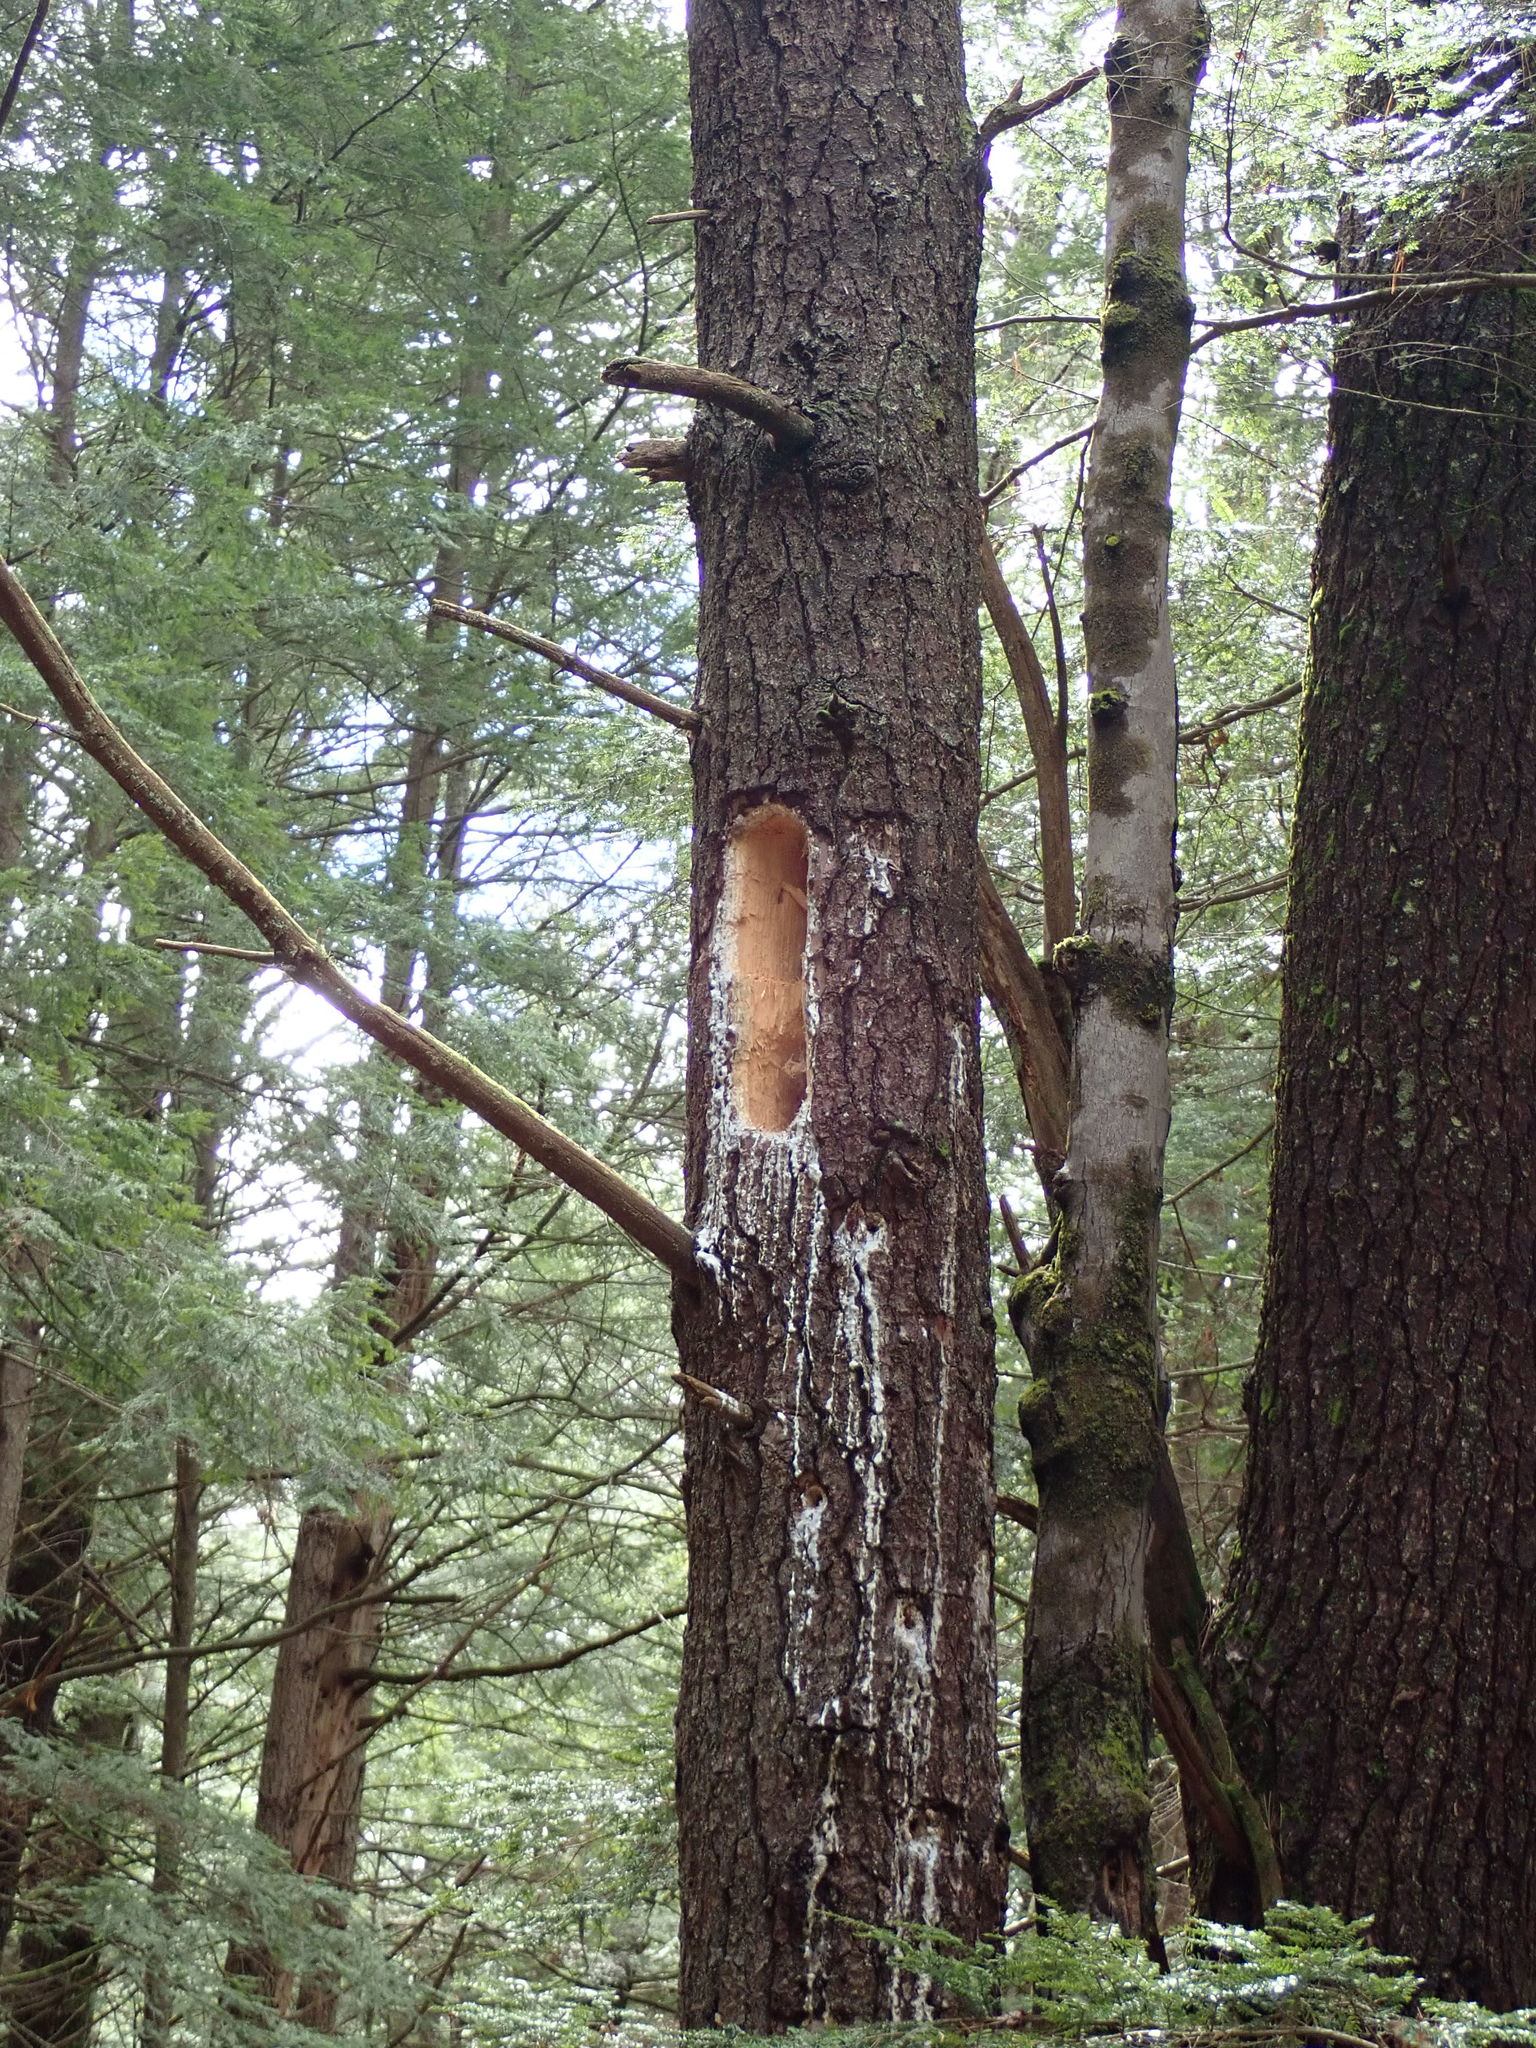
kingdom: Animalia
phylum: Chordata
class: Aves
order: Piciformes
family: Picidae
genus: Dryocopus
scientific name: Dryocopus pileatus
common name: Pileated woodpecker
